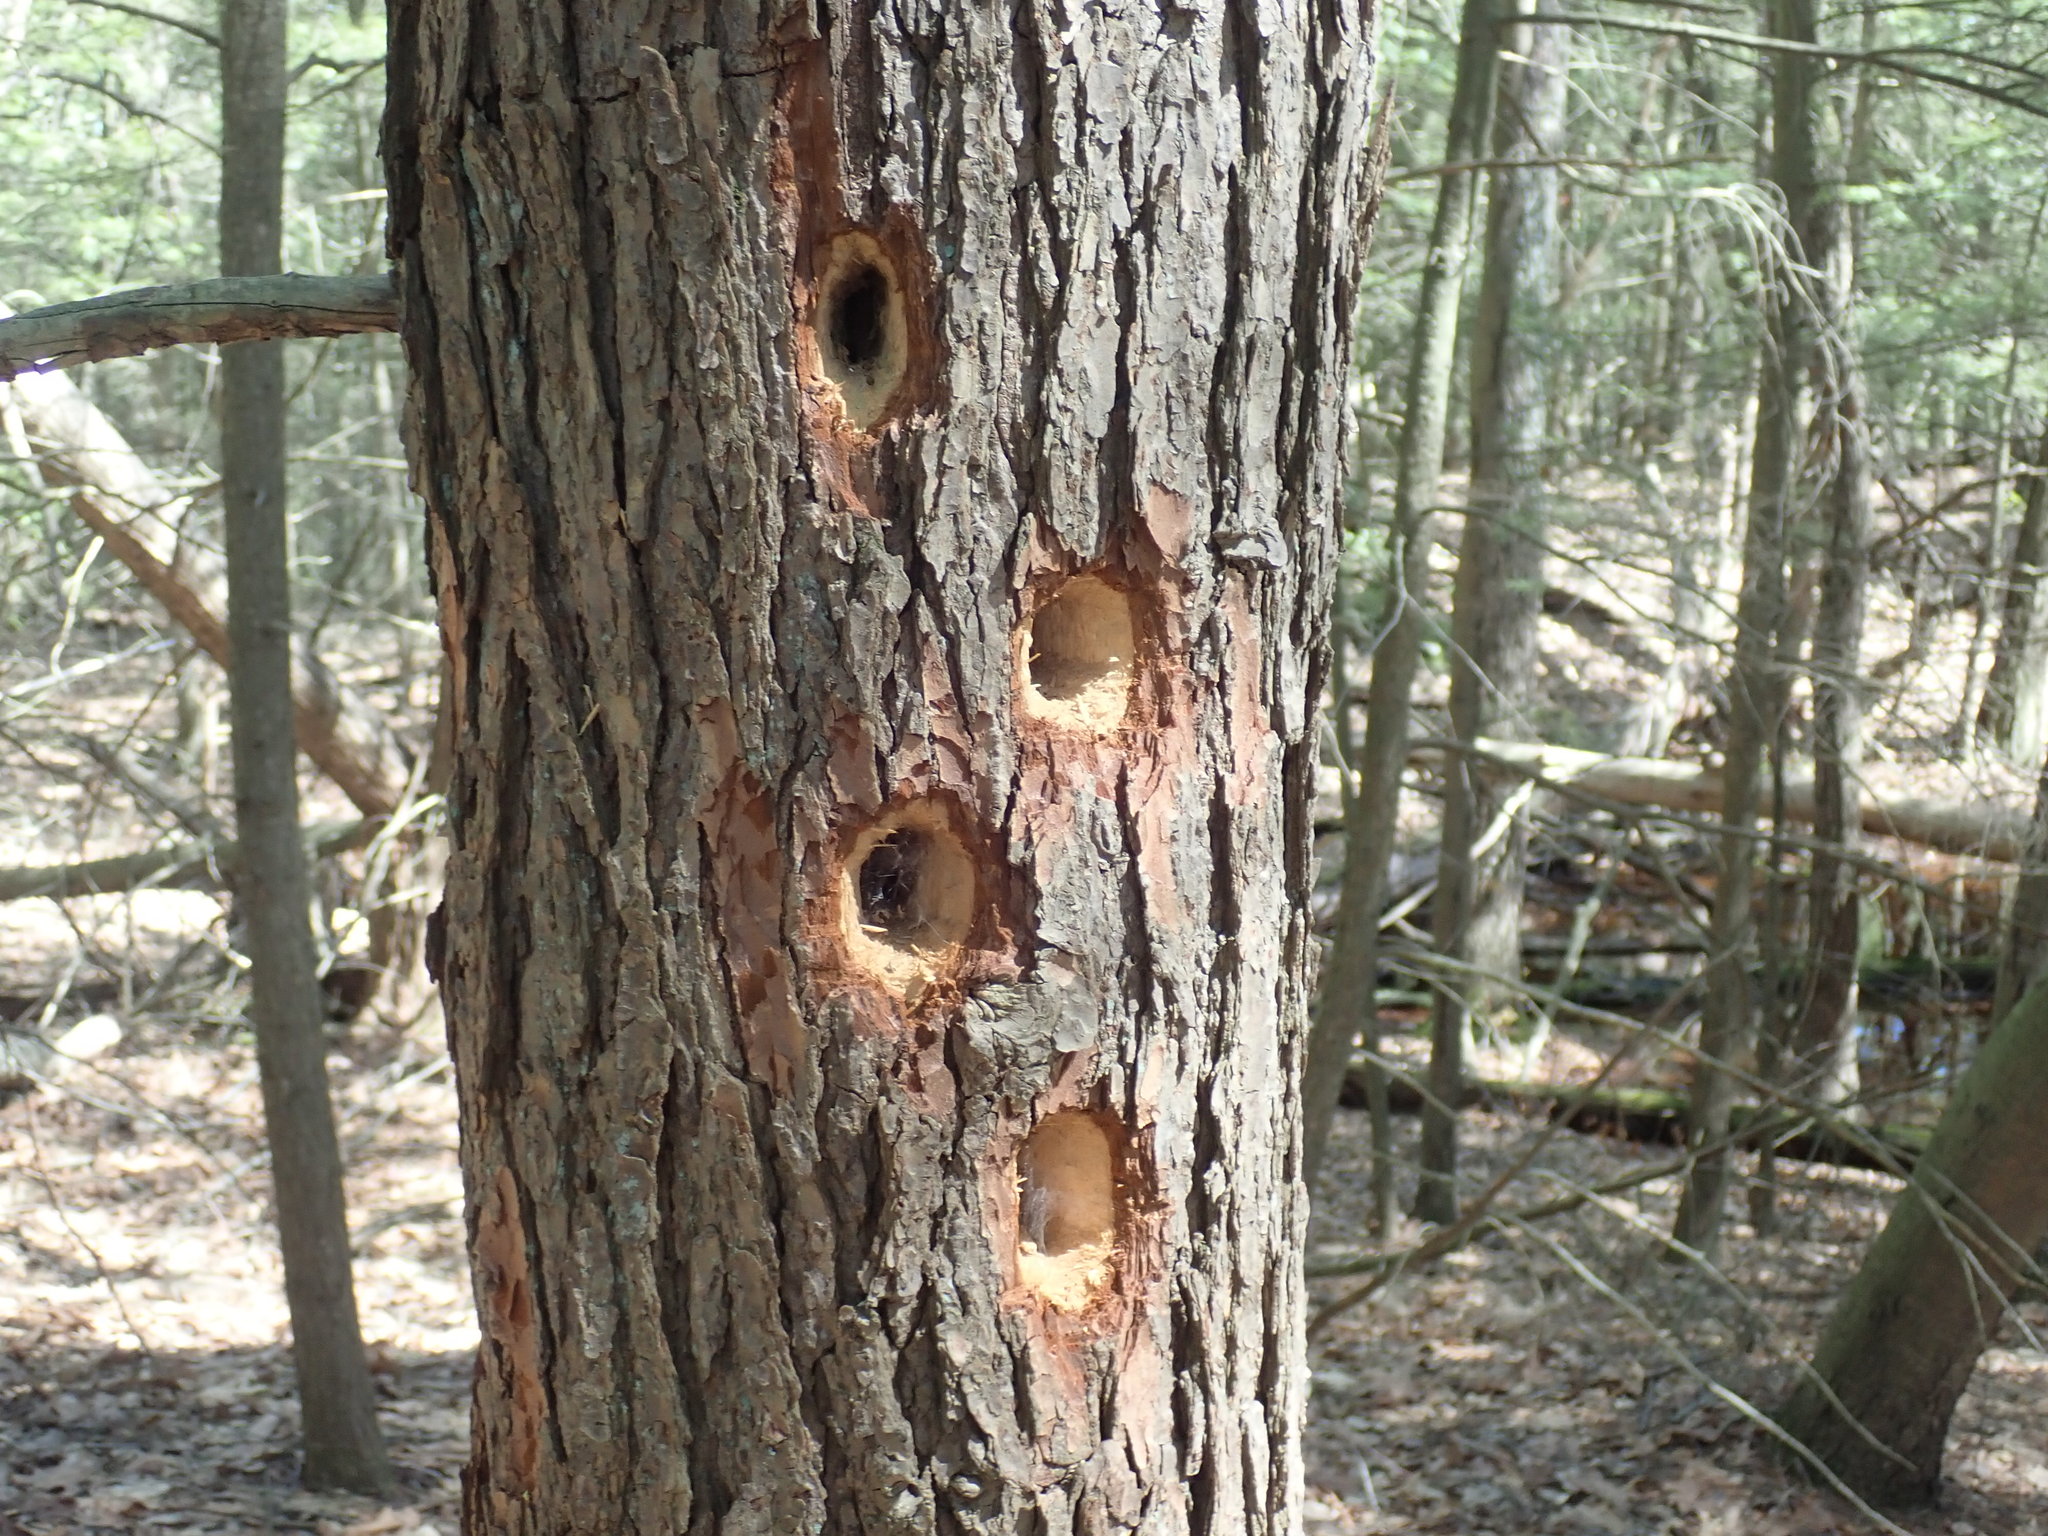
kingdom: Animalia
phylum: Chordata
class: Aves
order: Piciformes
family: Picidae
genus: Dryocopus
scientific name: Dryocopus pileatus
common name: Pileated woodpecker
